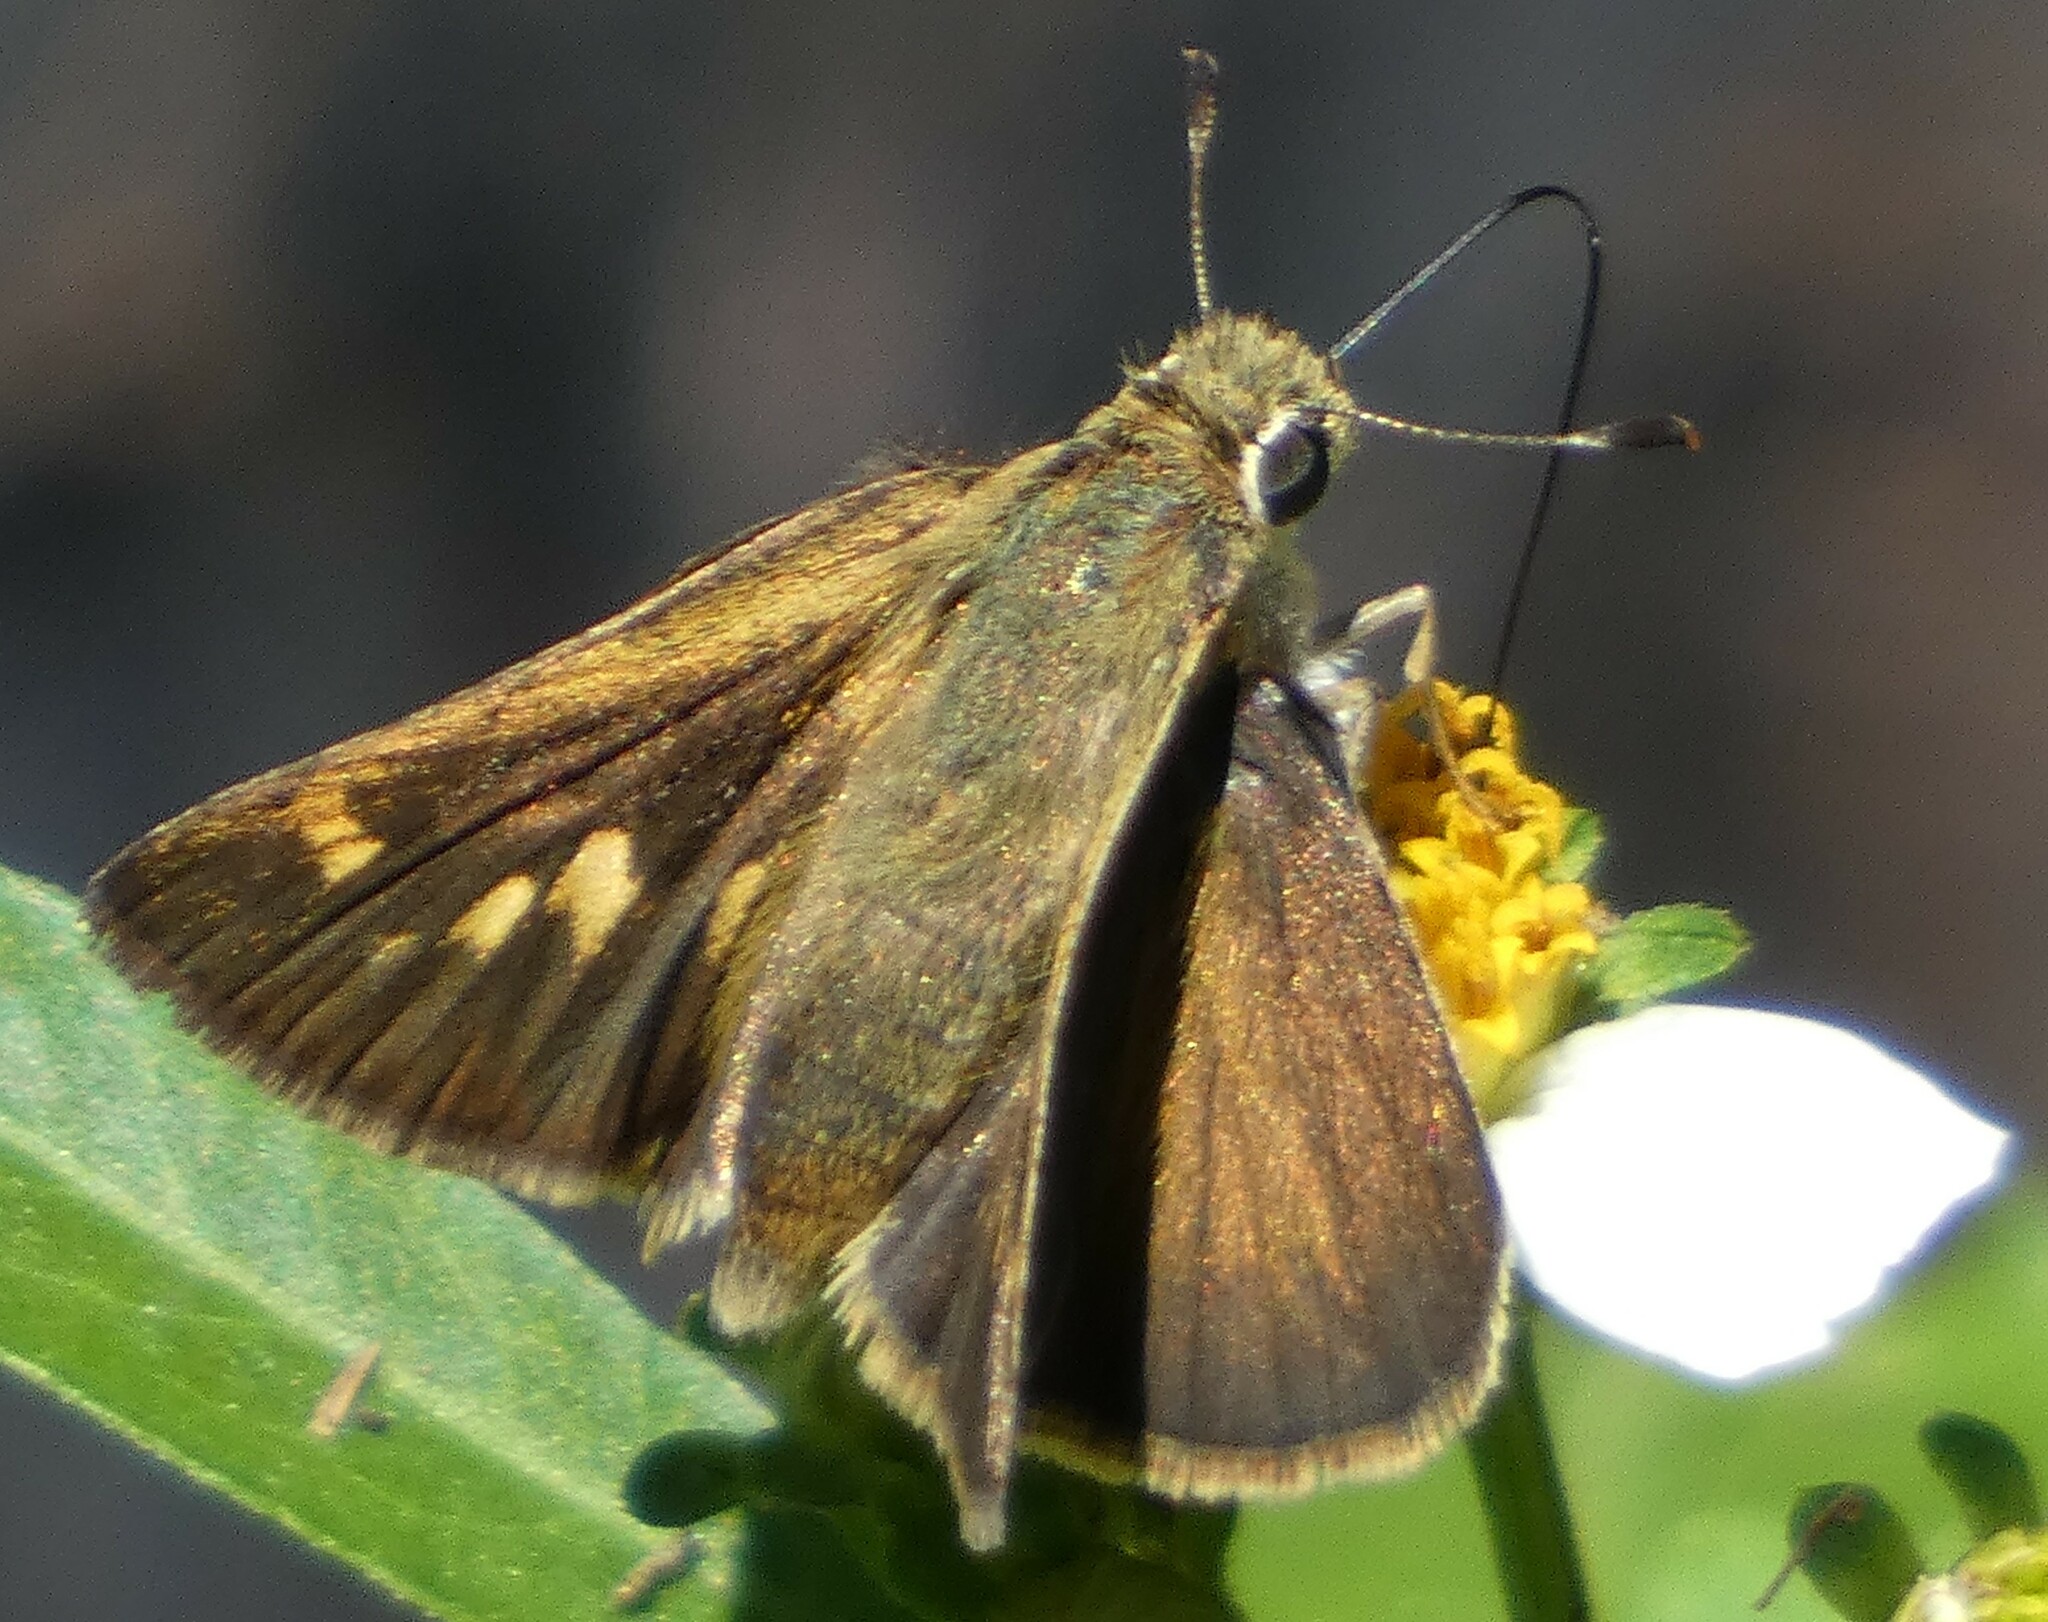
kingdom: Animalia
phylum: Arthropoda
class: Insecta
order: Lepidoptera
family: Hesperiidae
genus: Polites
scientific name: Polites vibex
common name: Whirlabout
